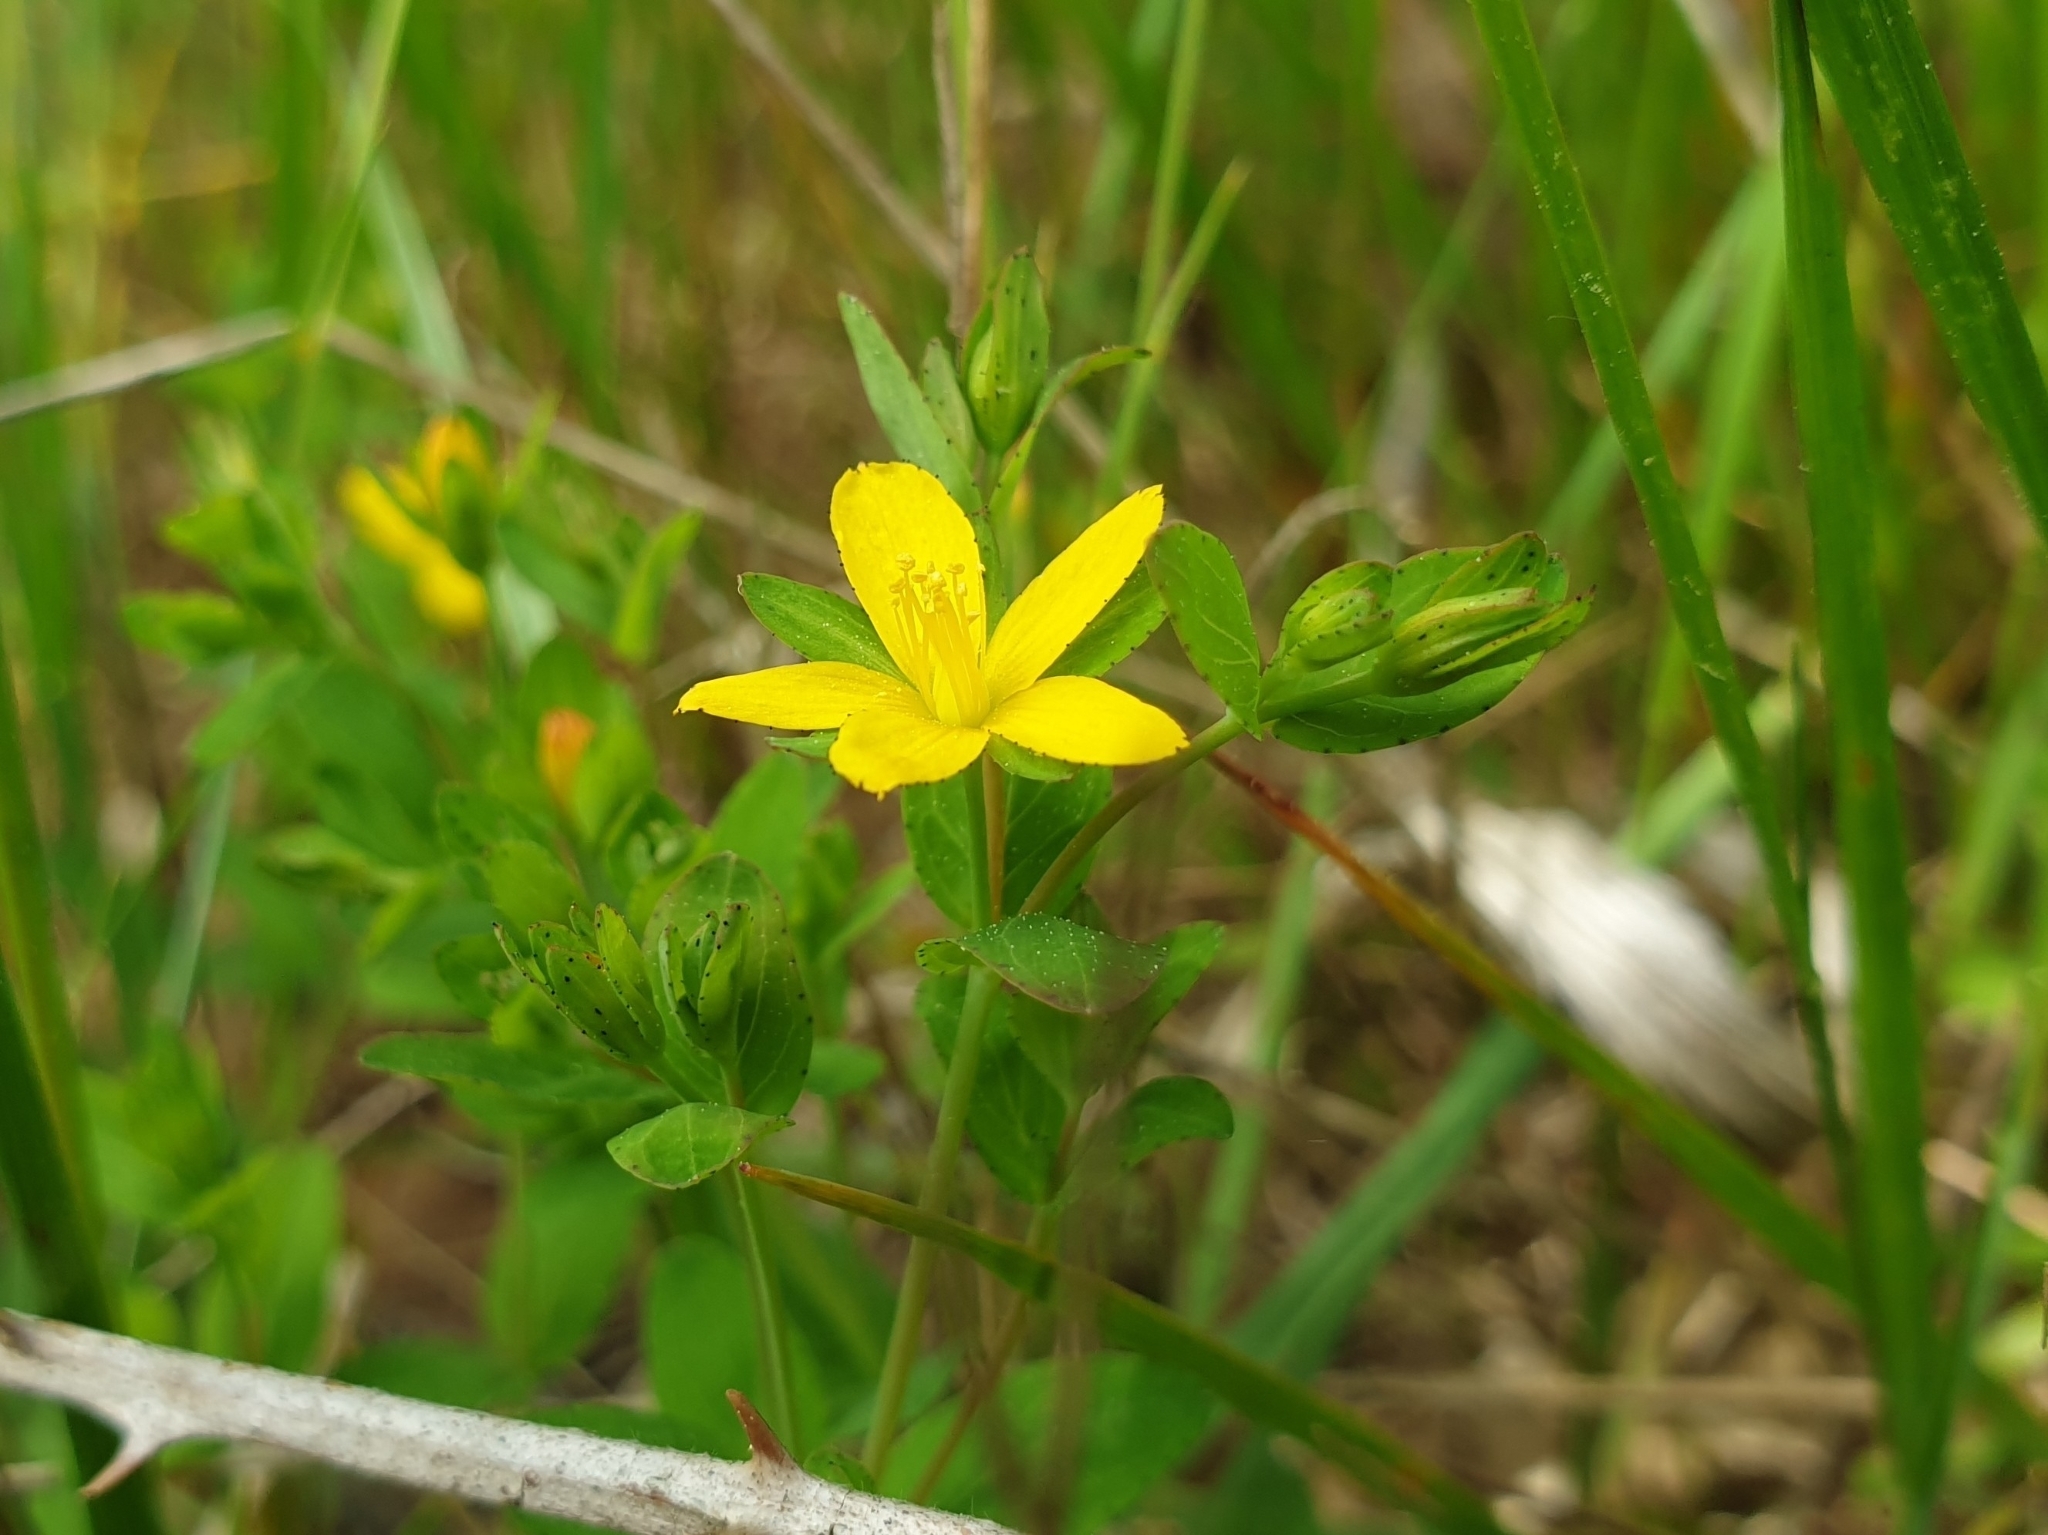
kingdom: Plantae
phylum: Tracheophyta
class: Magnoliopsida
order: Malpighiales
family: Hypericaceae
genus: Hypericum
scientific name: Hypericum humifusum
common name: Trailing st. john's-wort
